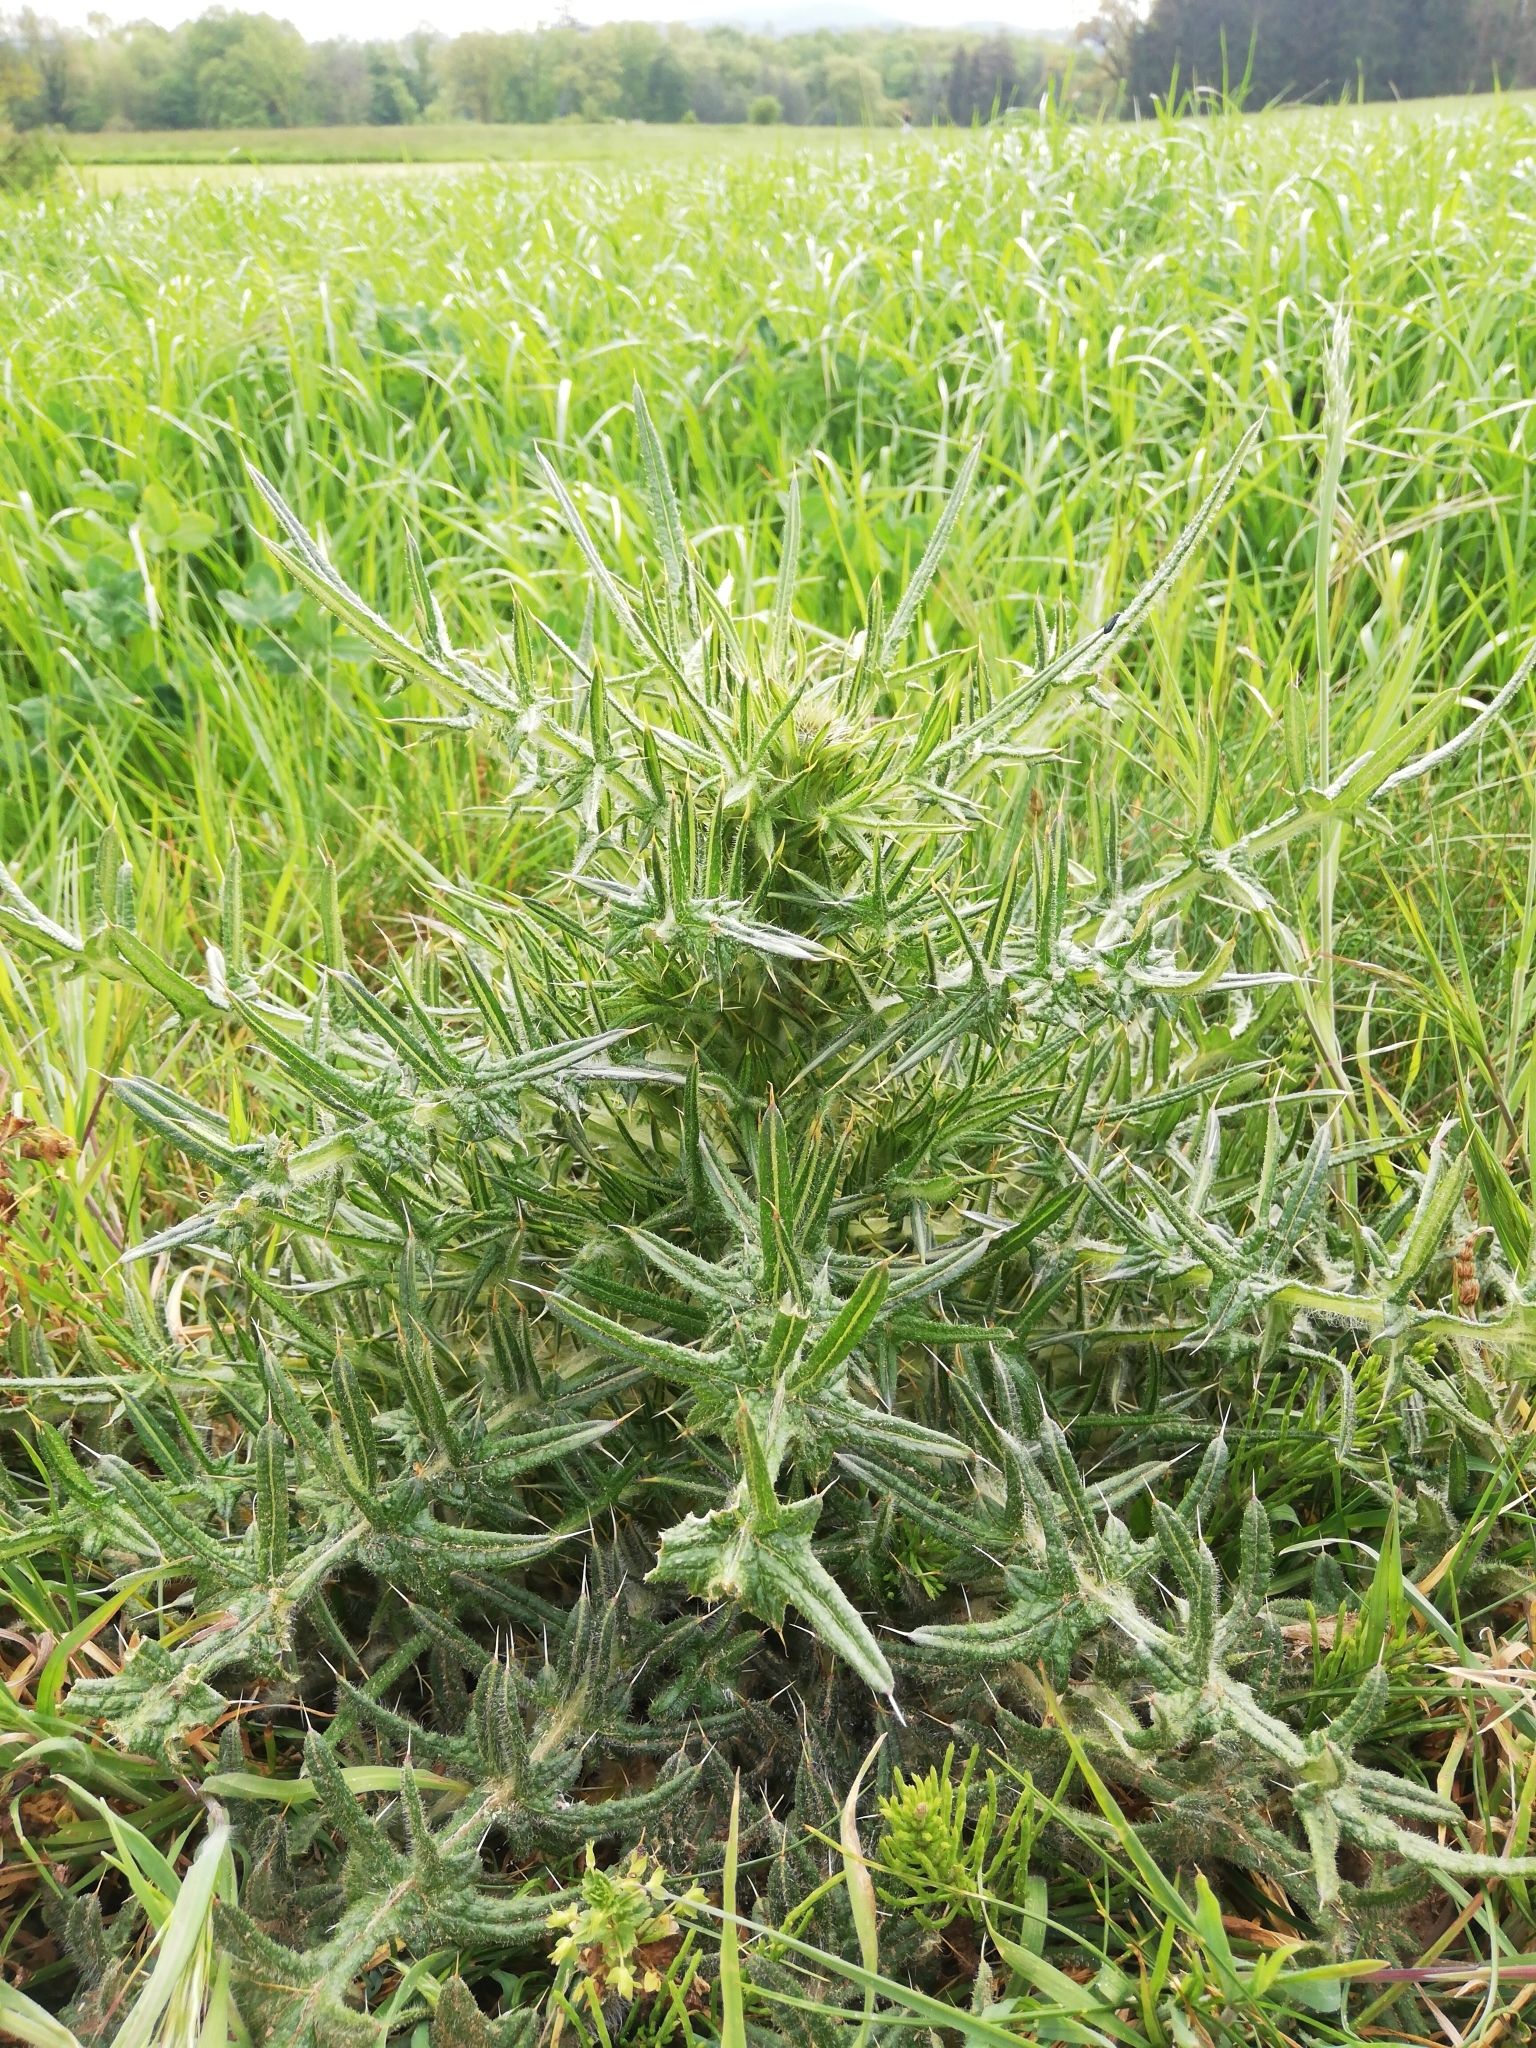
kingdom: Plantae
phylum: Tracheophyta
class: Magnoliopsida
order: Asterales
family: Asteraceae
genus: Cirsium
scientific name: Cirsium vulgare
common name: Bull thistle
